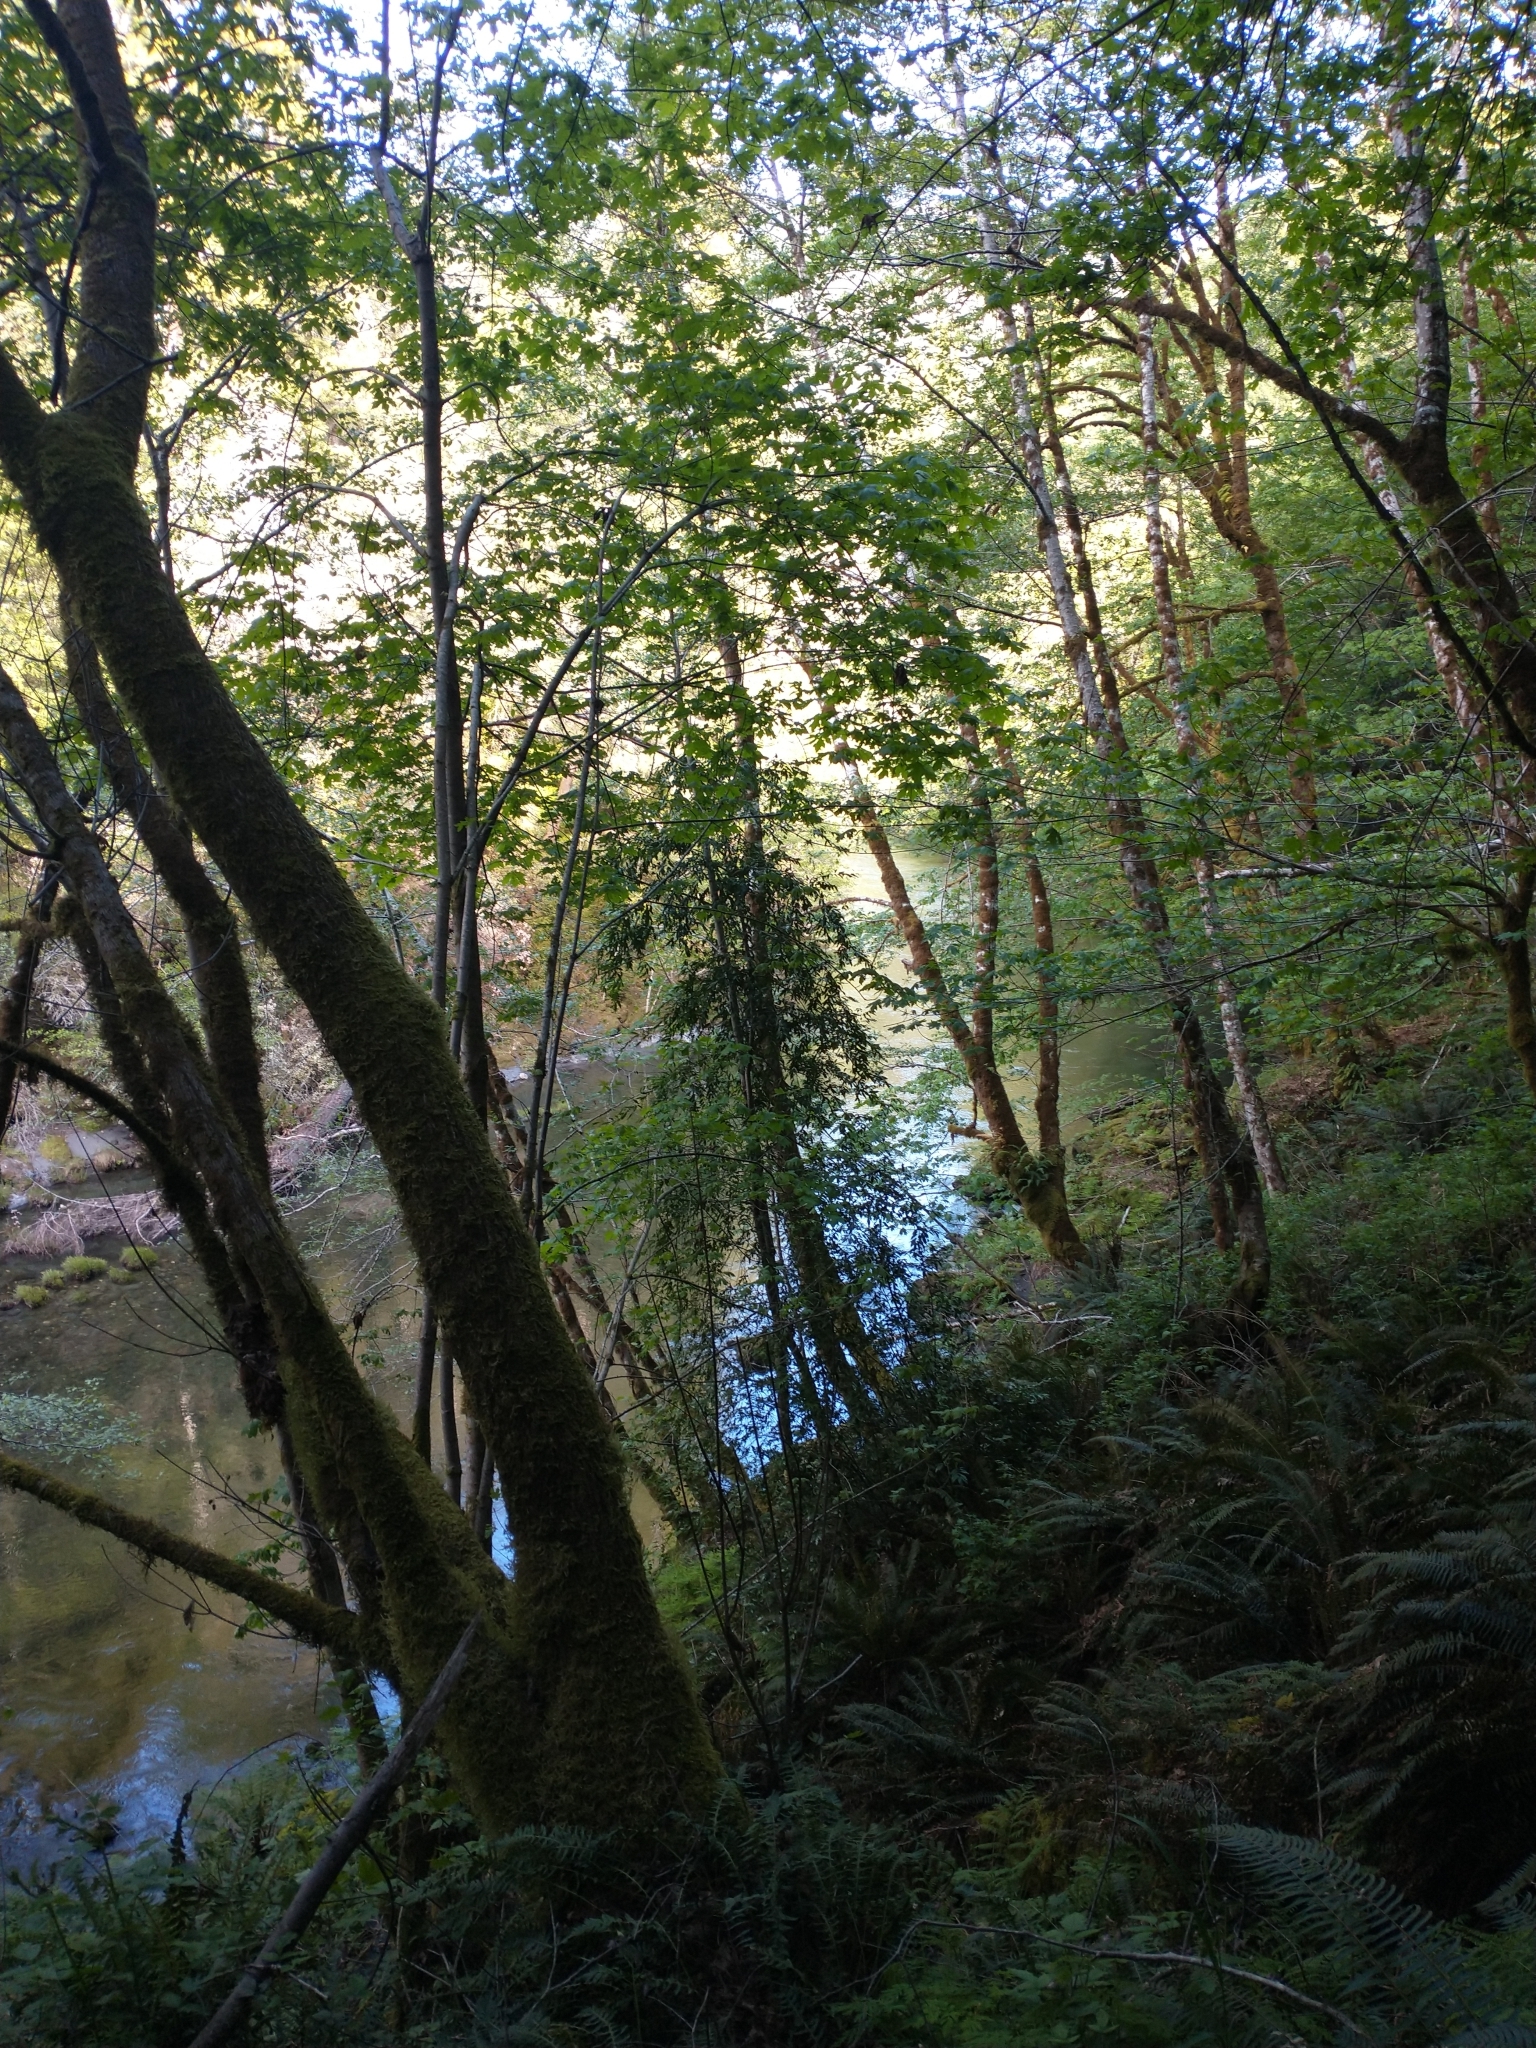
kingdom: Plantae
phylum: Tracheophyta
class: Magnoliopsida
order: Sapindales
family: Sapindaceae
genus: Acer
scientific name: Acer macrophyllum
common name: Oregon maple
